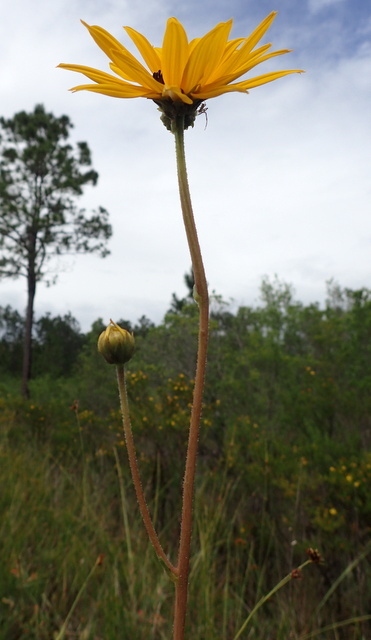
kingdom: Plantae
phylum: Tracheophyta
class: Magnoliopsida
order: Asterales
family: Asteraceae
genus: Helianthus
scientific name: Helianthus heterophyllus
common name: Wetland sunflower
